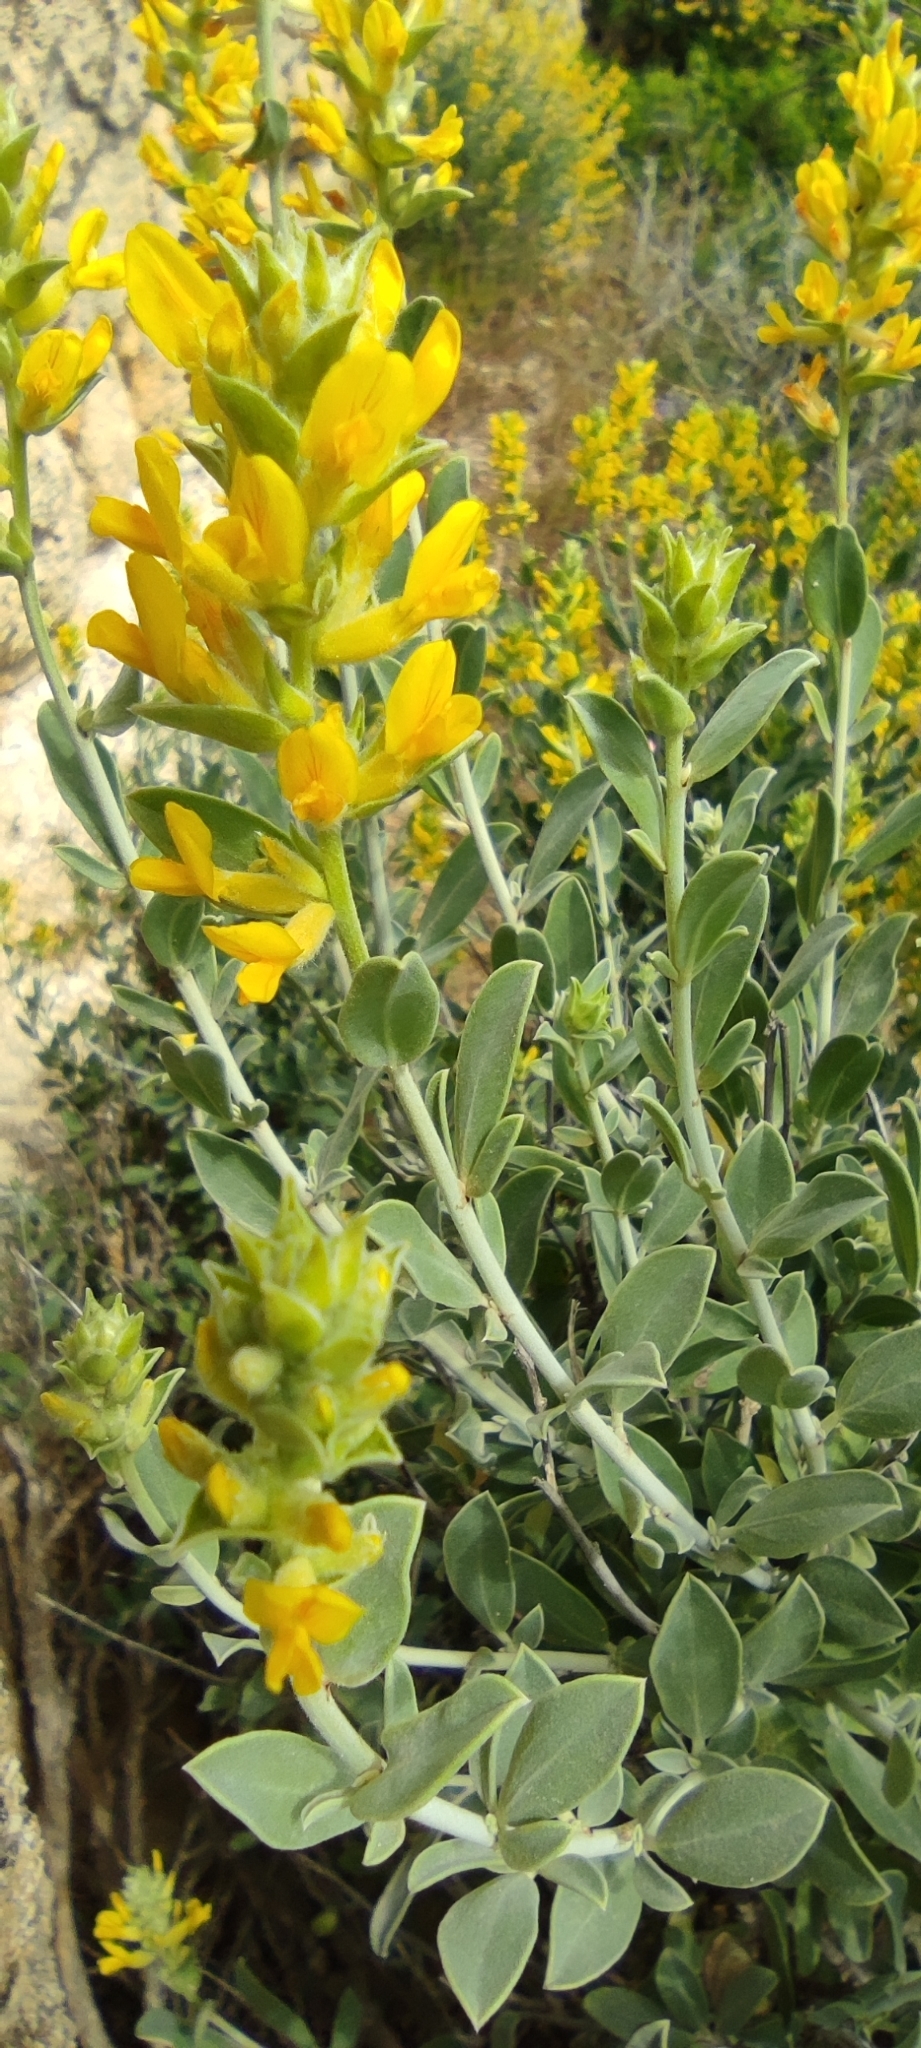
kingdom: Plantae
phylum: Tracheophyta
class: Magnoliopsida
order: Fabales
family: Fabaceae
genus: Anthyllis
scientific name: Anthyllis cytisoides
